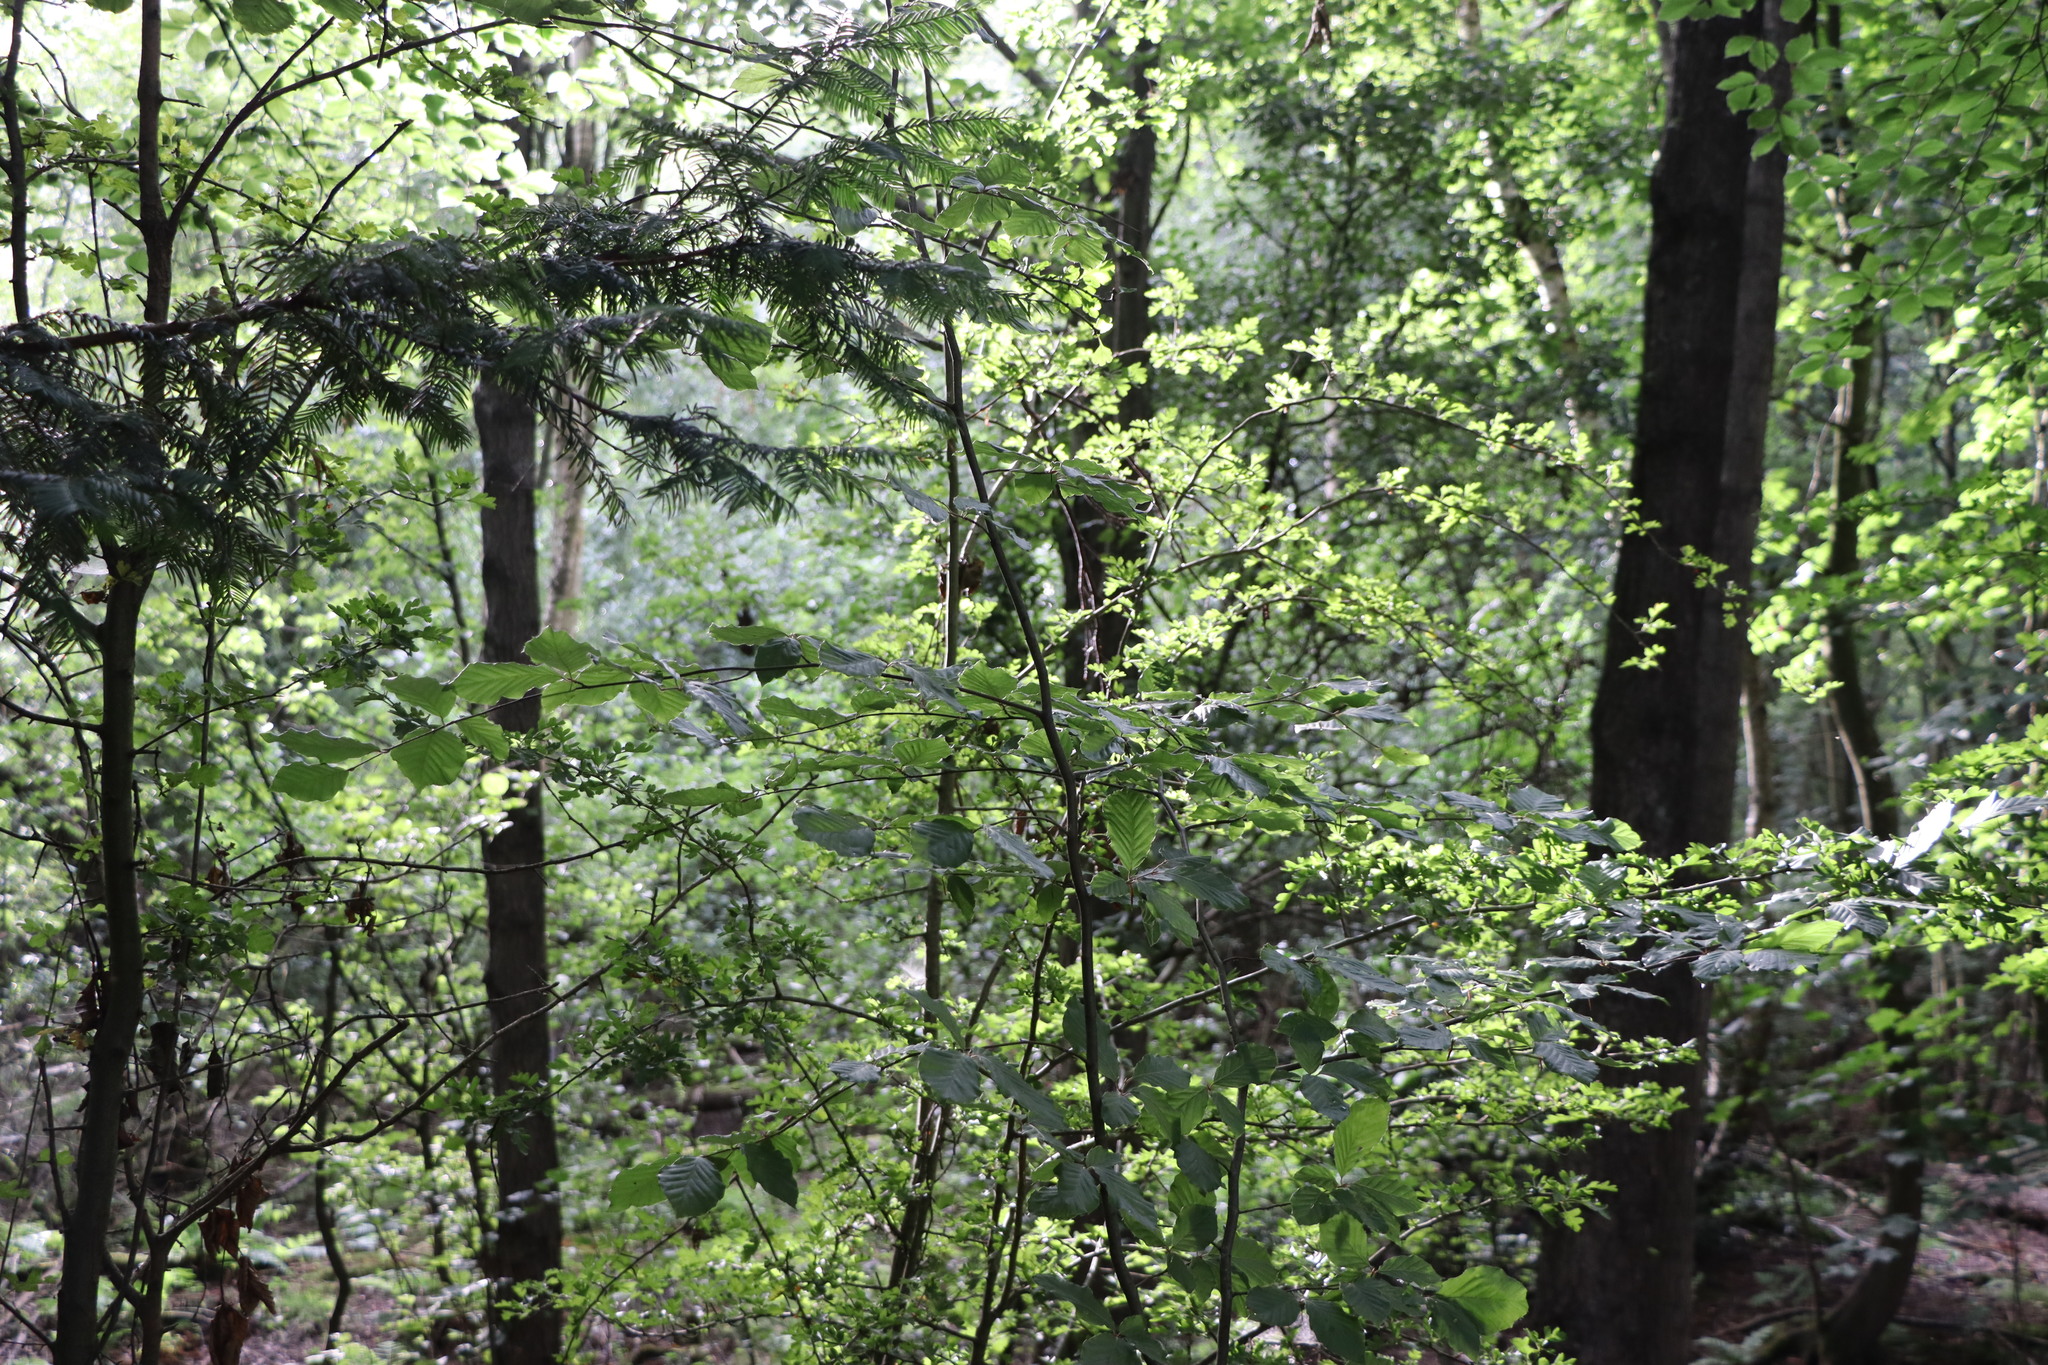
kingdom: Plantae
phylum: Tracheophyta
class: Magnoliopsida
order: Fagales
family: Fagaceae
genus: Fagus
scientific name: Fagus sylvatica
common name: Beech
